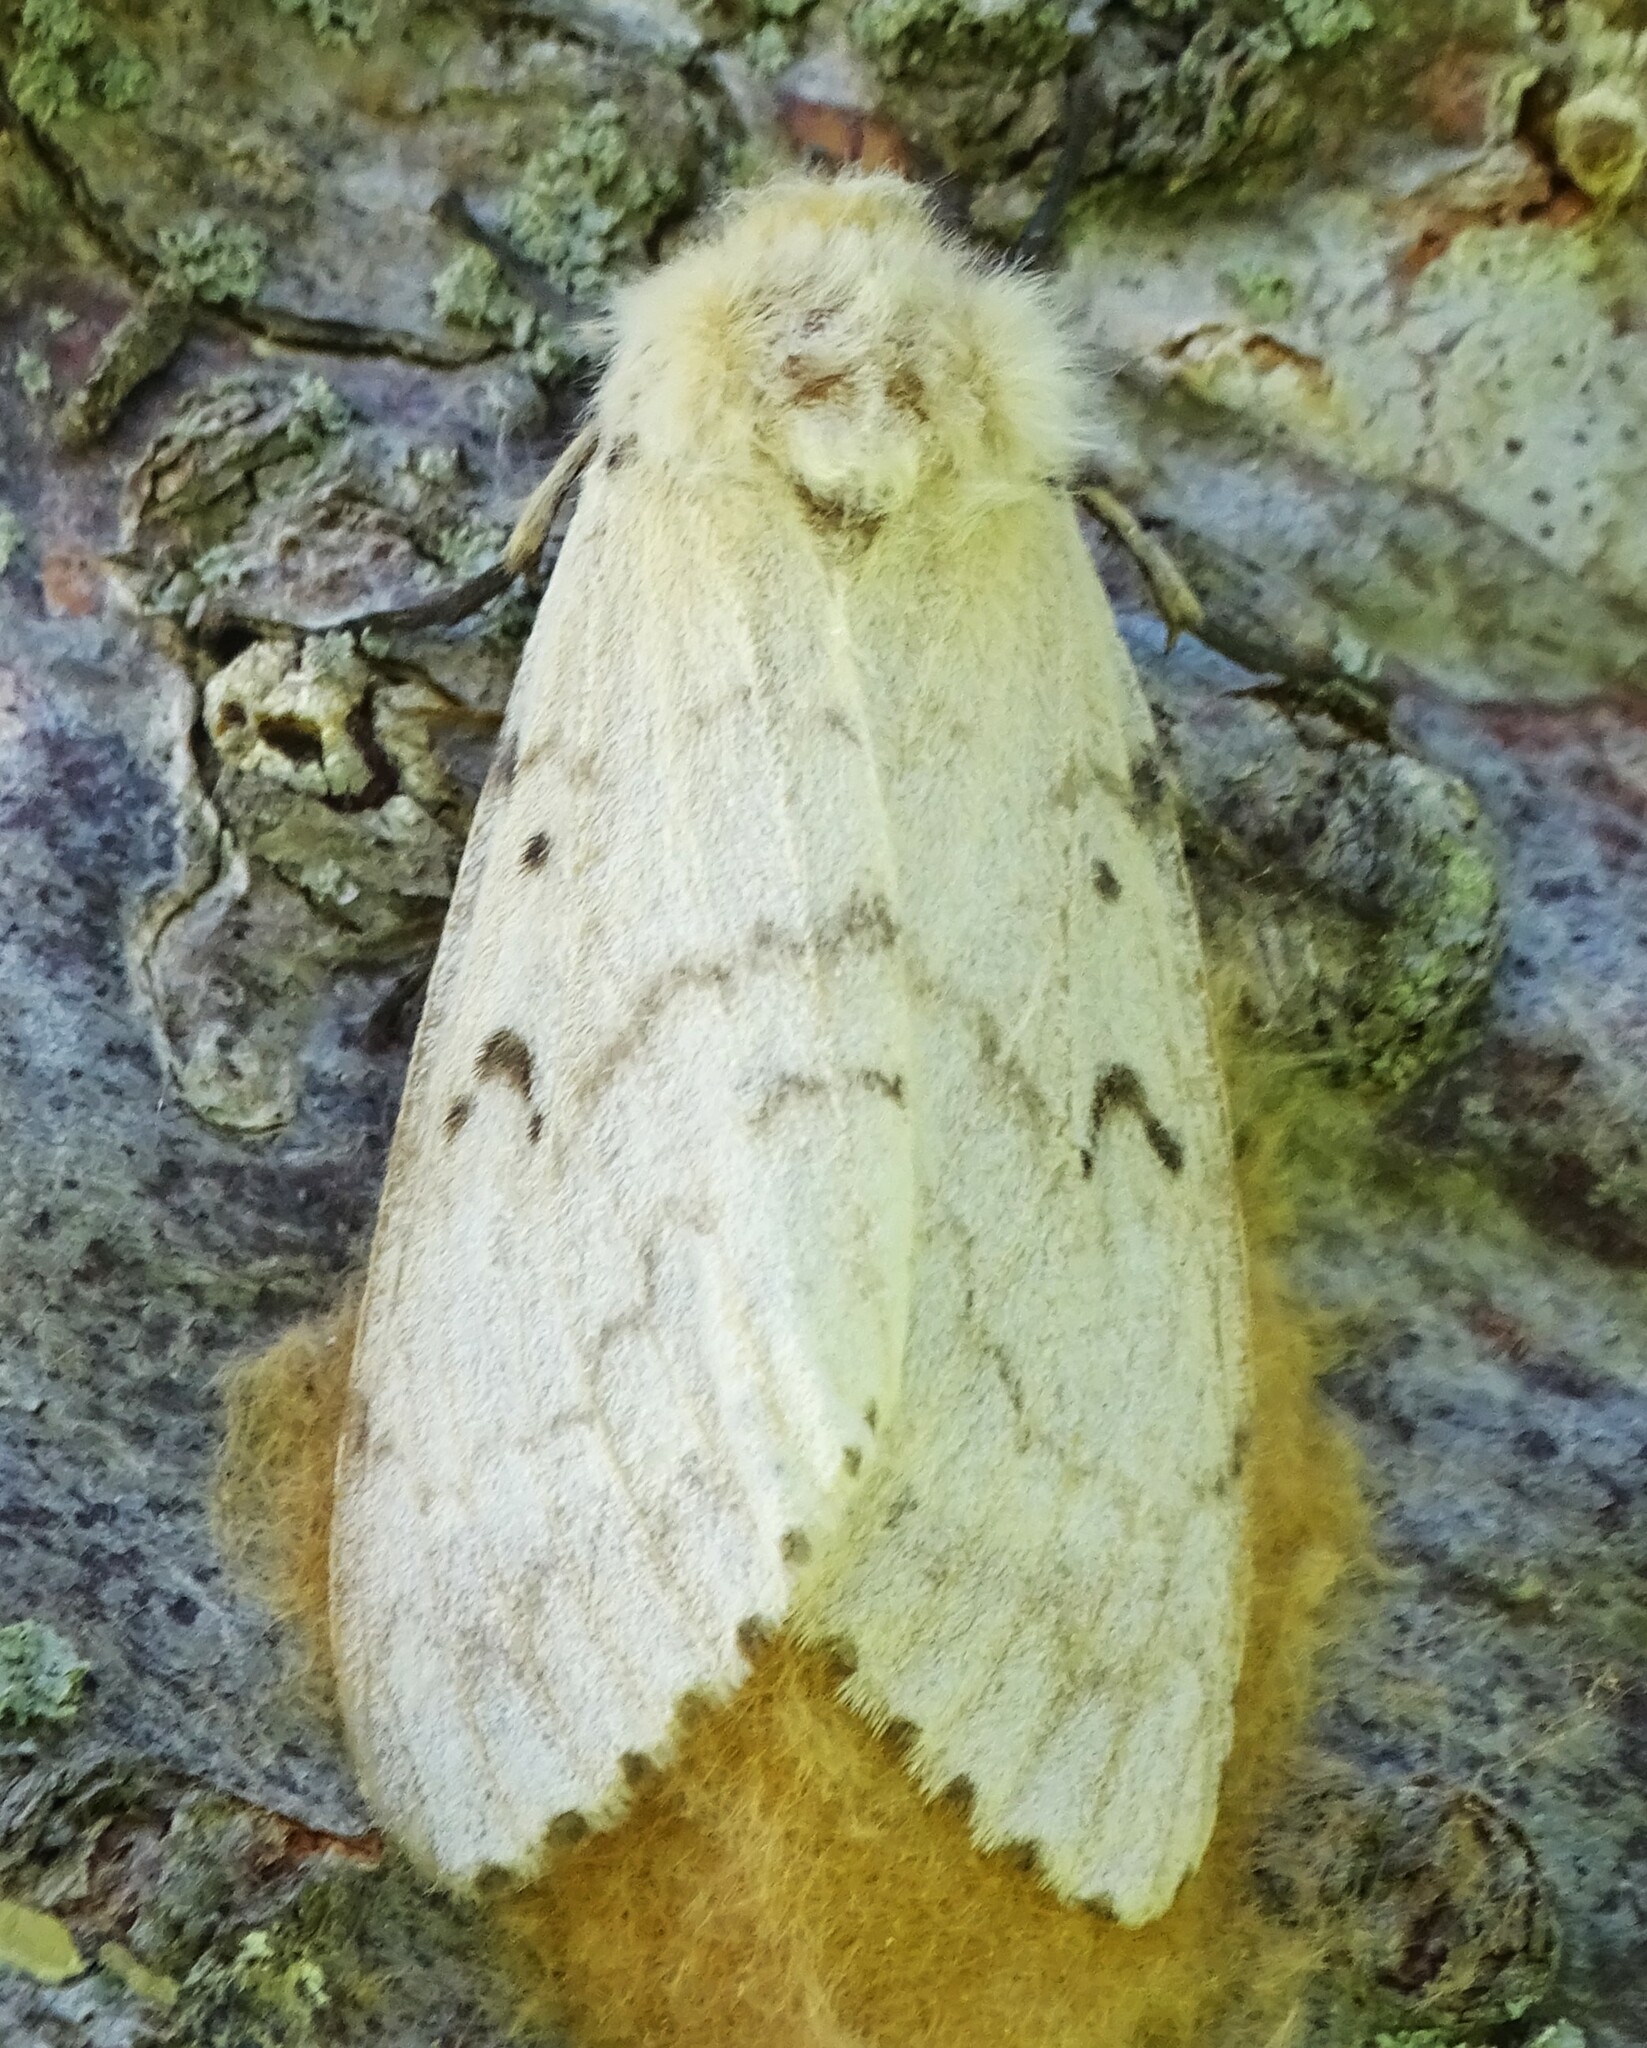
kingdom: Animalia
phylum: Arthropoda
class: Insecta
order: Lepidoptera
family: Erebidae
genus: Lymantria
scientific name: Lymantria dispar
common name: Gypsy moth
